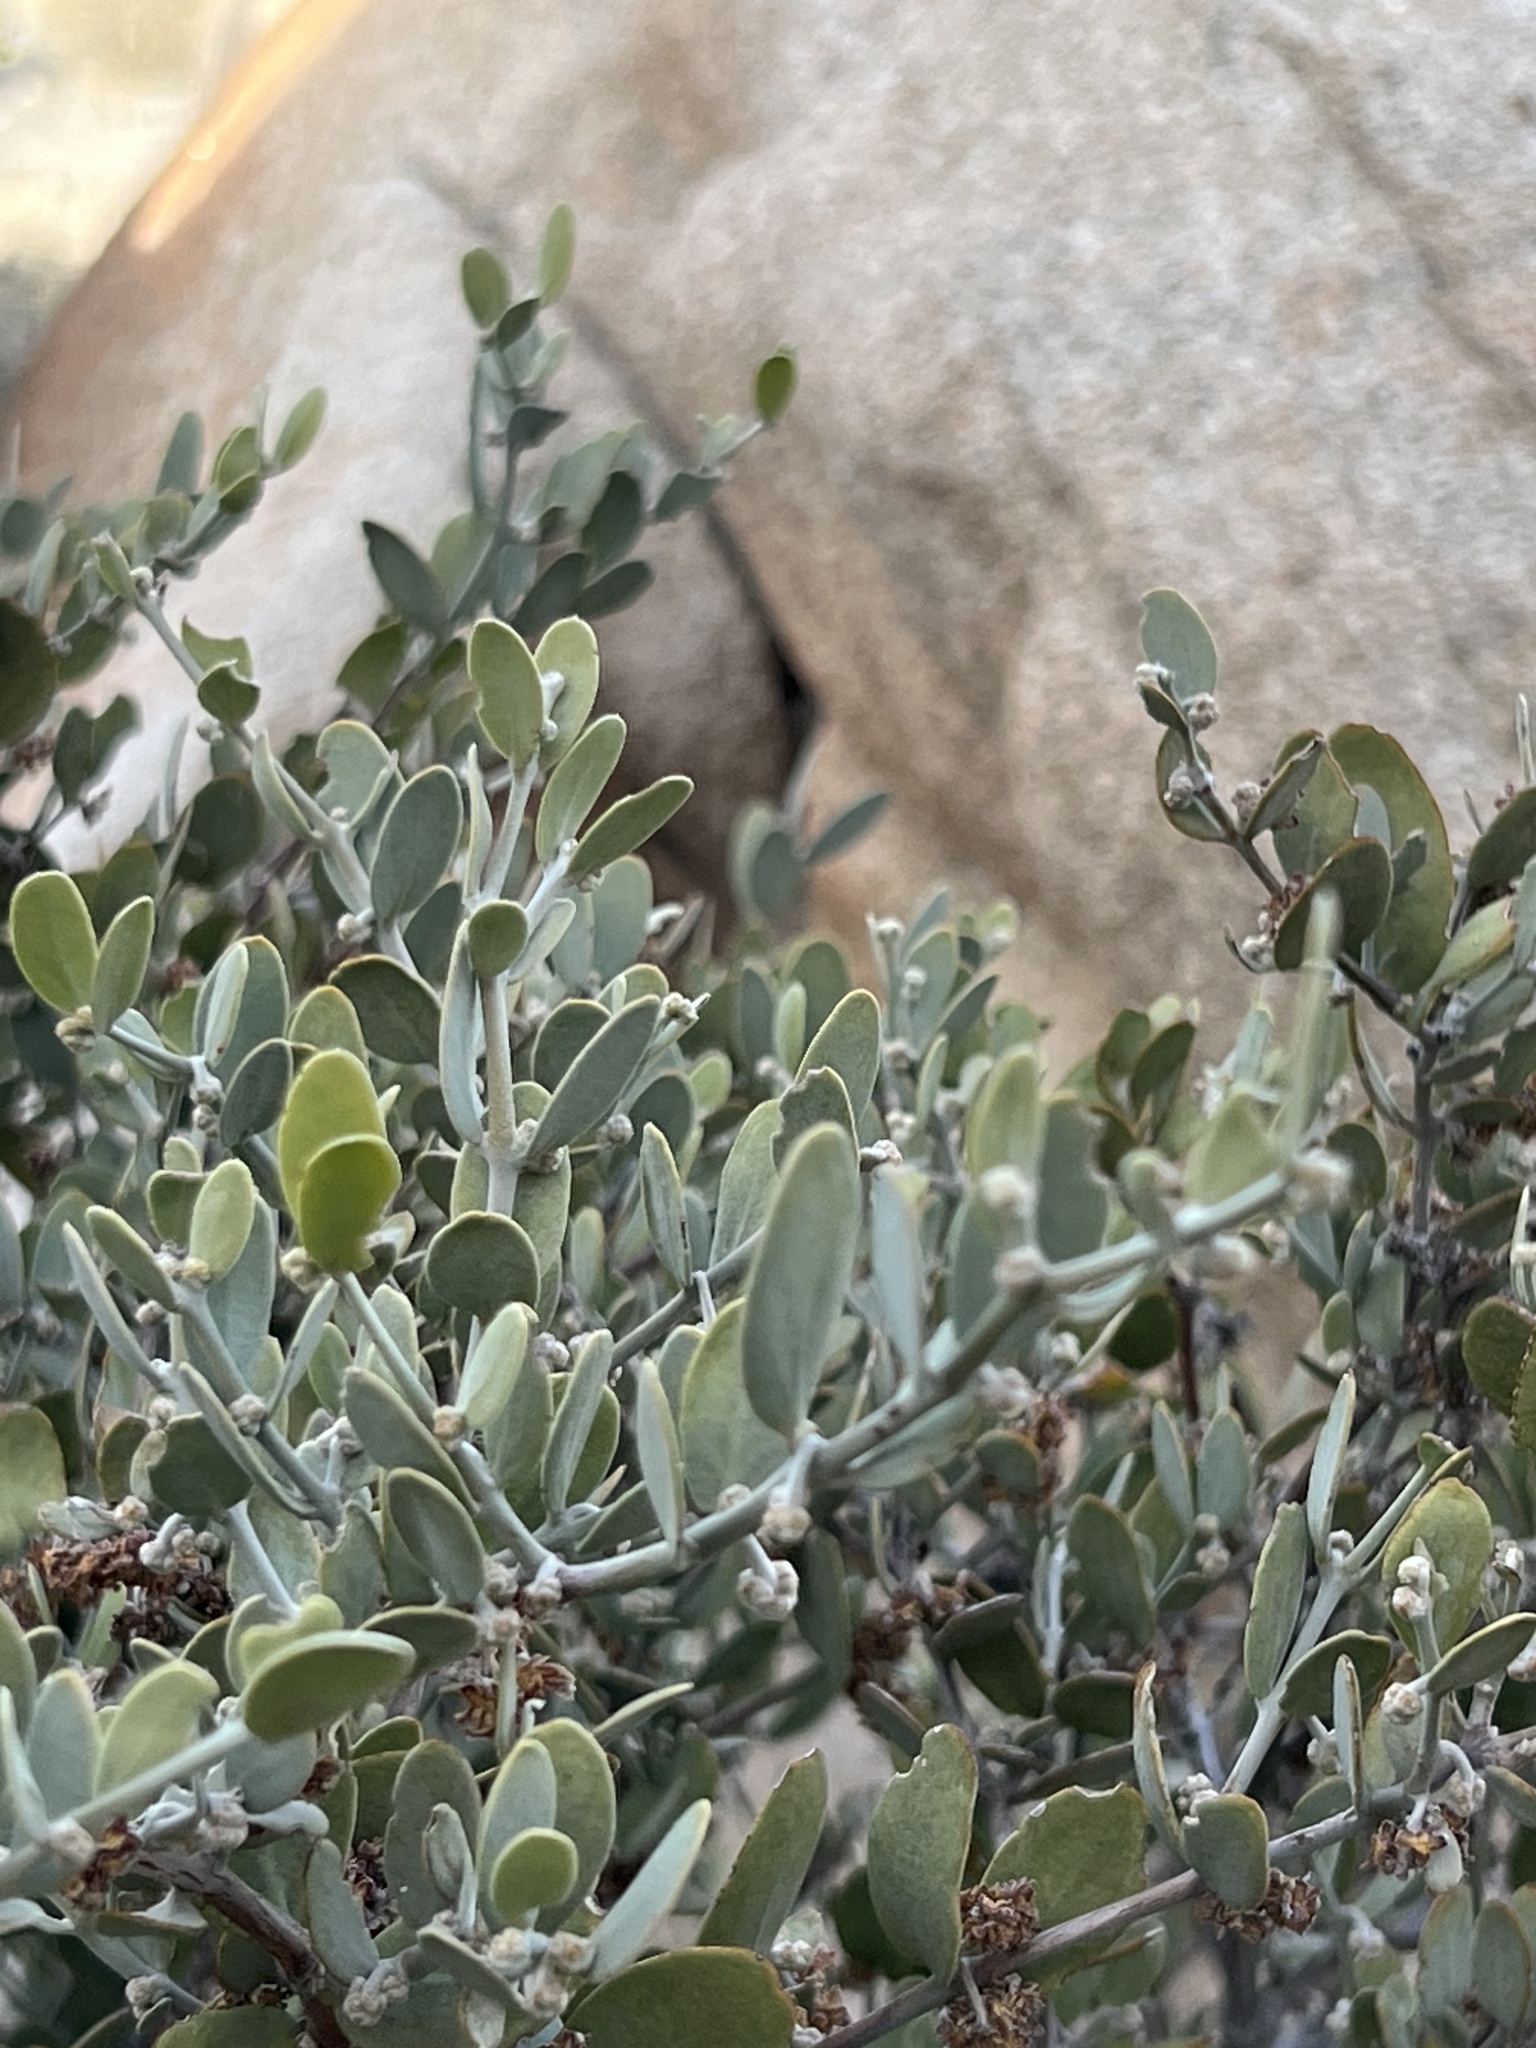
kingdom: Plantae
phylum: Tracheophyta
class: Magnoliopsida
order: Caryophyllales
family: Simmondsiaceae
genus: Simmondsia
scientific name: Simmondsia chinensis
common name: Jojoba
